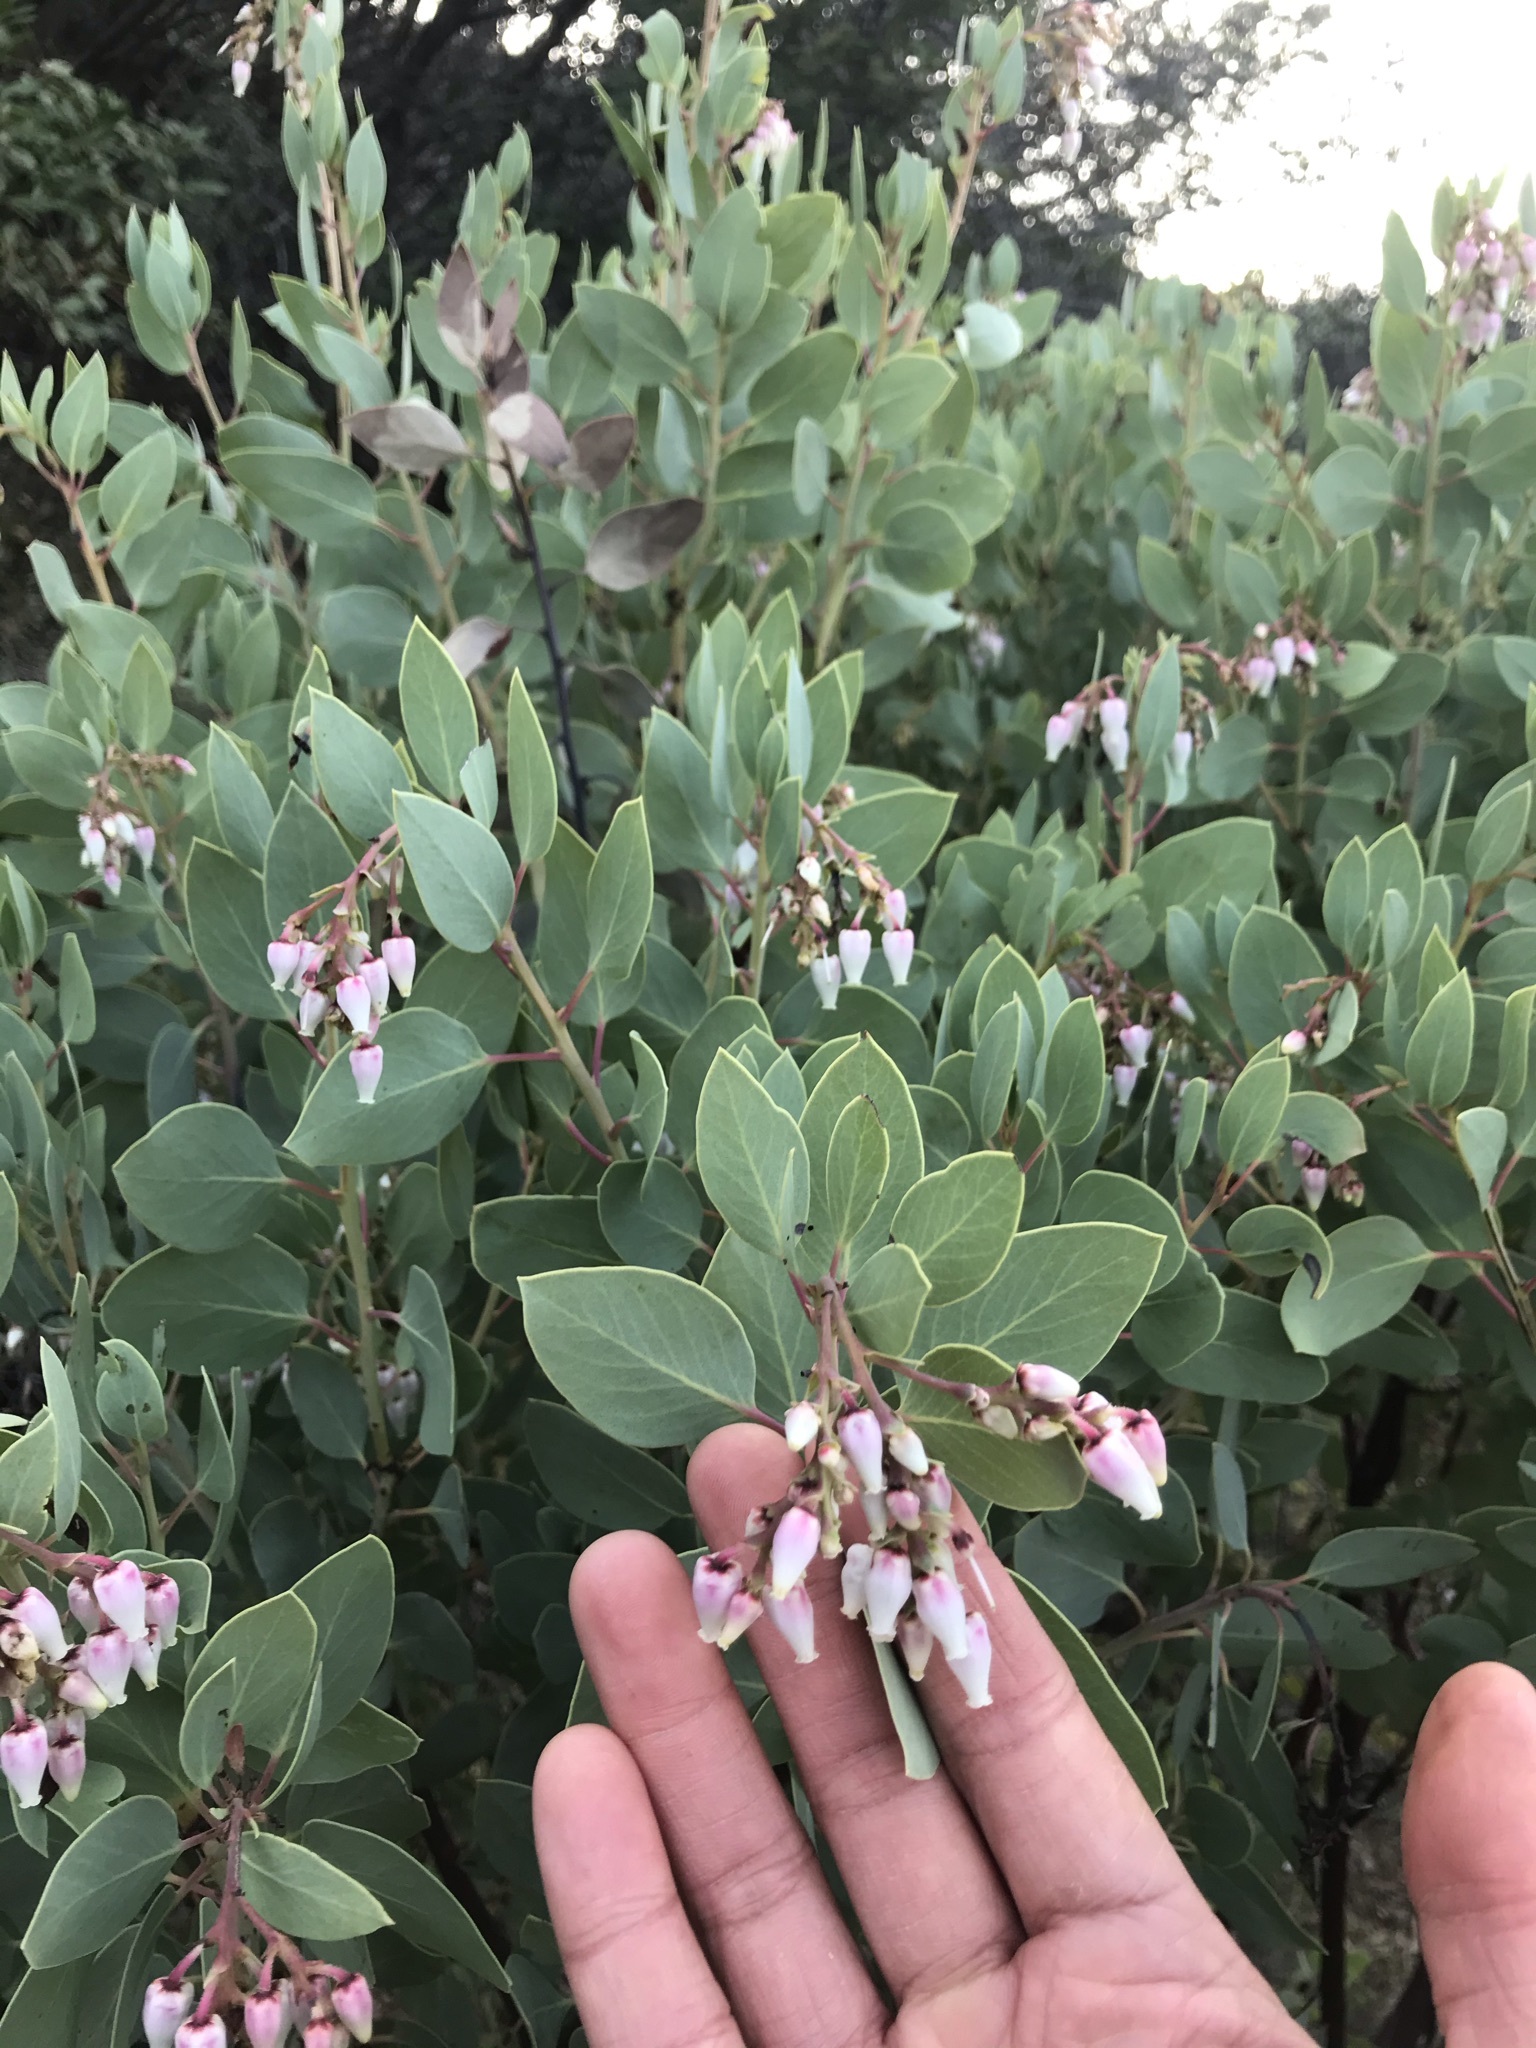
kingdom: Plantae
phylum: Tracheophyta
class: Magnoliopsida
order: Ericales
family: Ericaceae
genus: Arctostaphylos
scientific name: Arctostaphylos glauca
